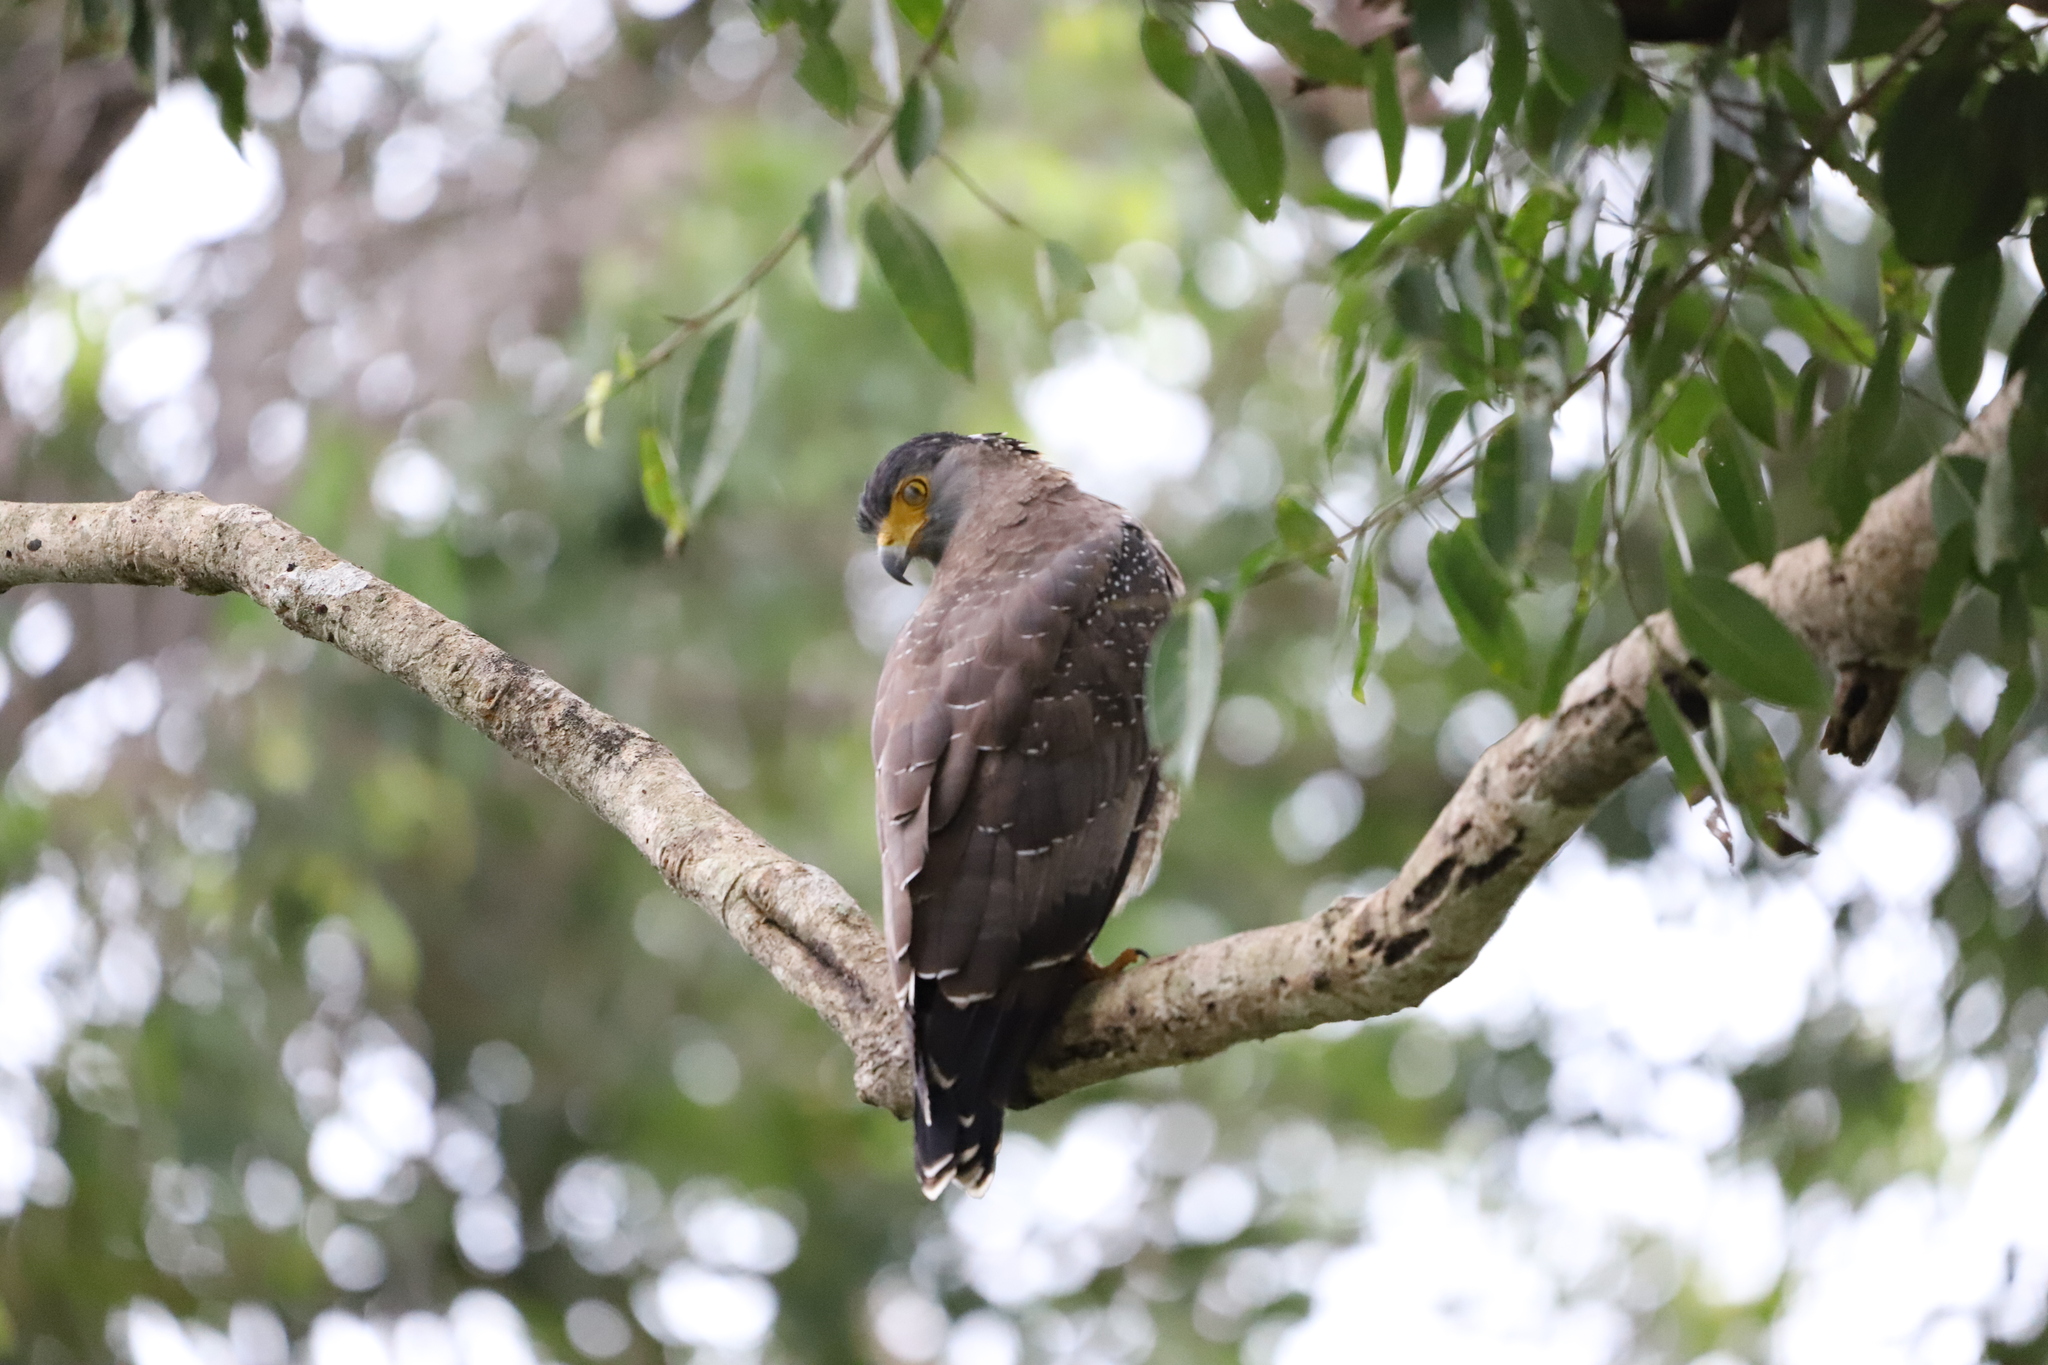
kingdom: Animalia
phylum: Chordata
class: Aves
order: Accipitriformes
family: Accipitridae
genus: Spilornis
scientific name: Spilornis cheela
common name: Crested serpent eagle
